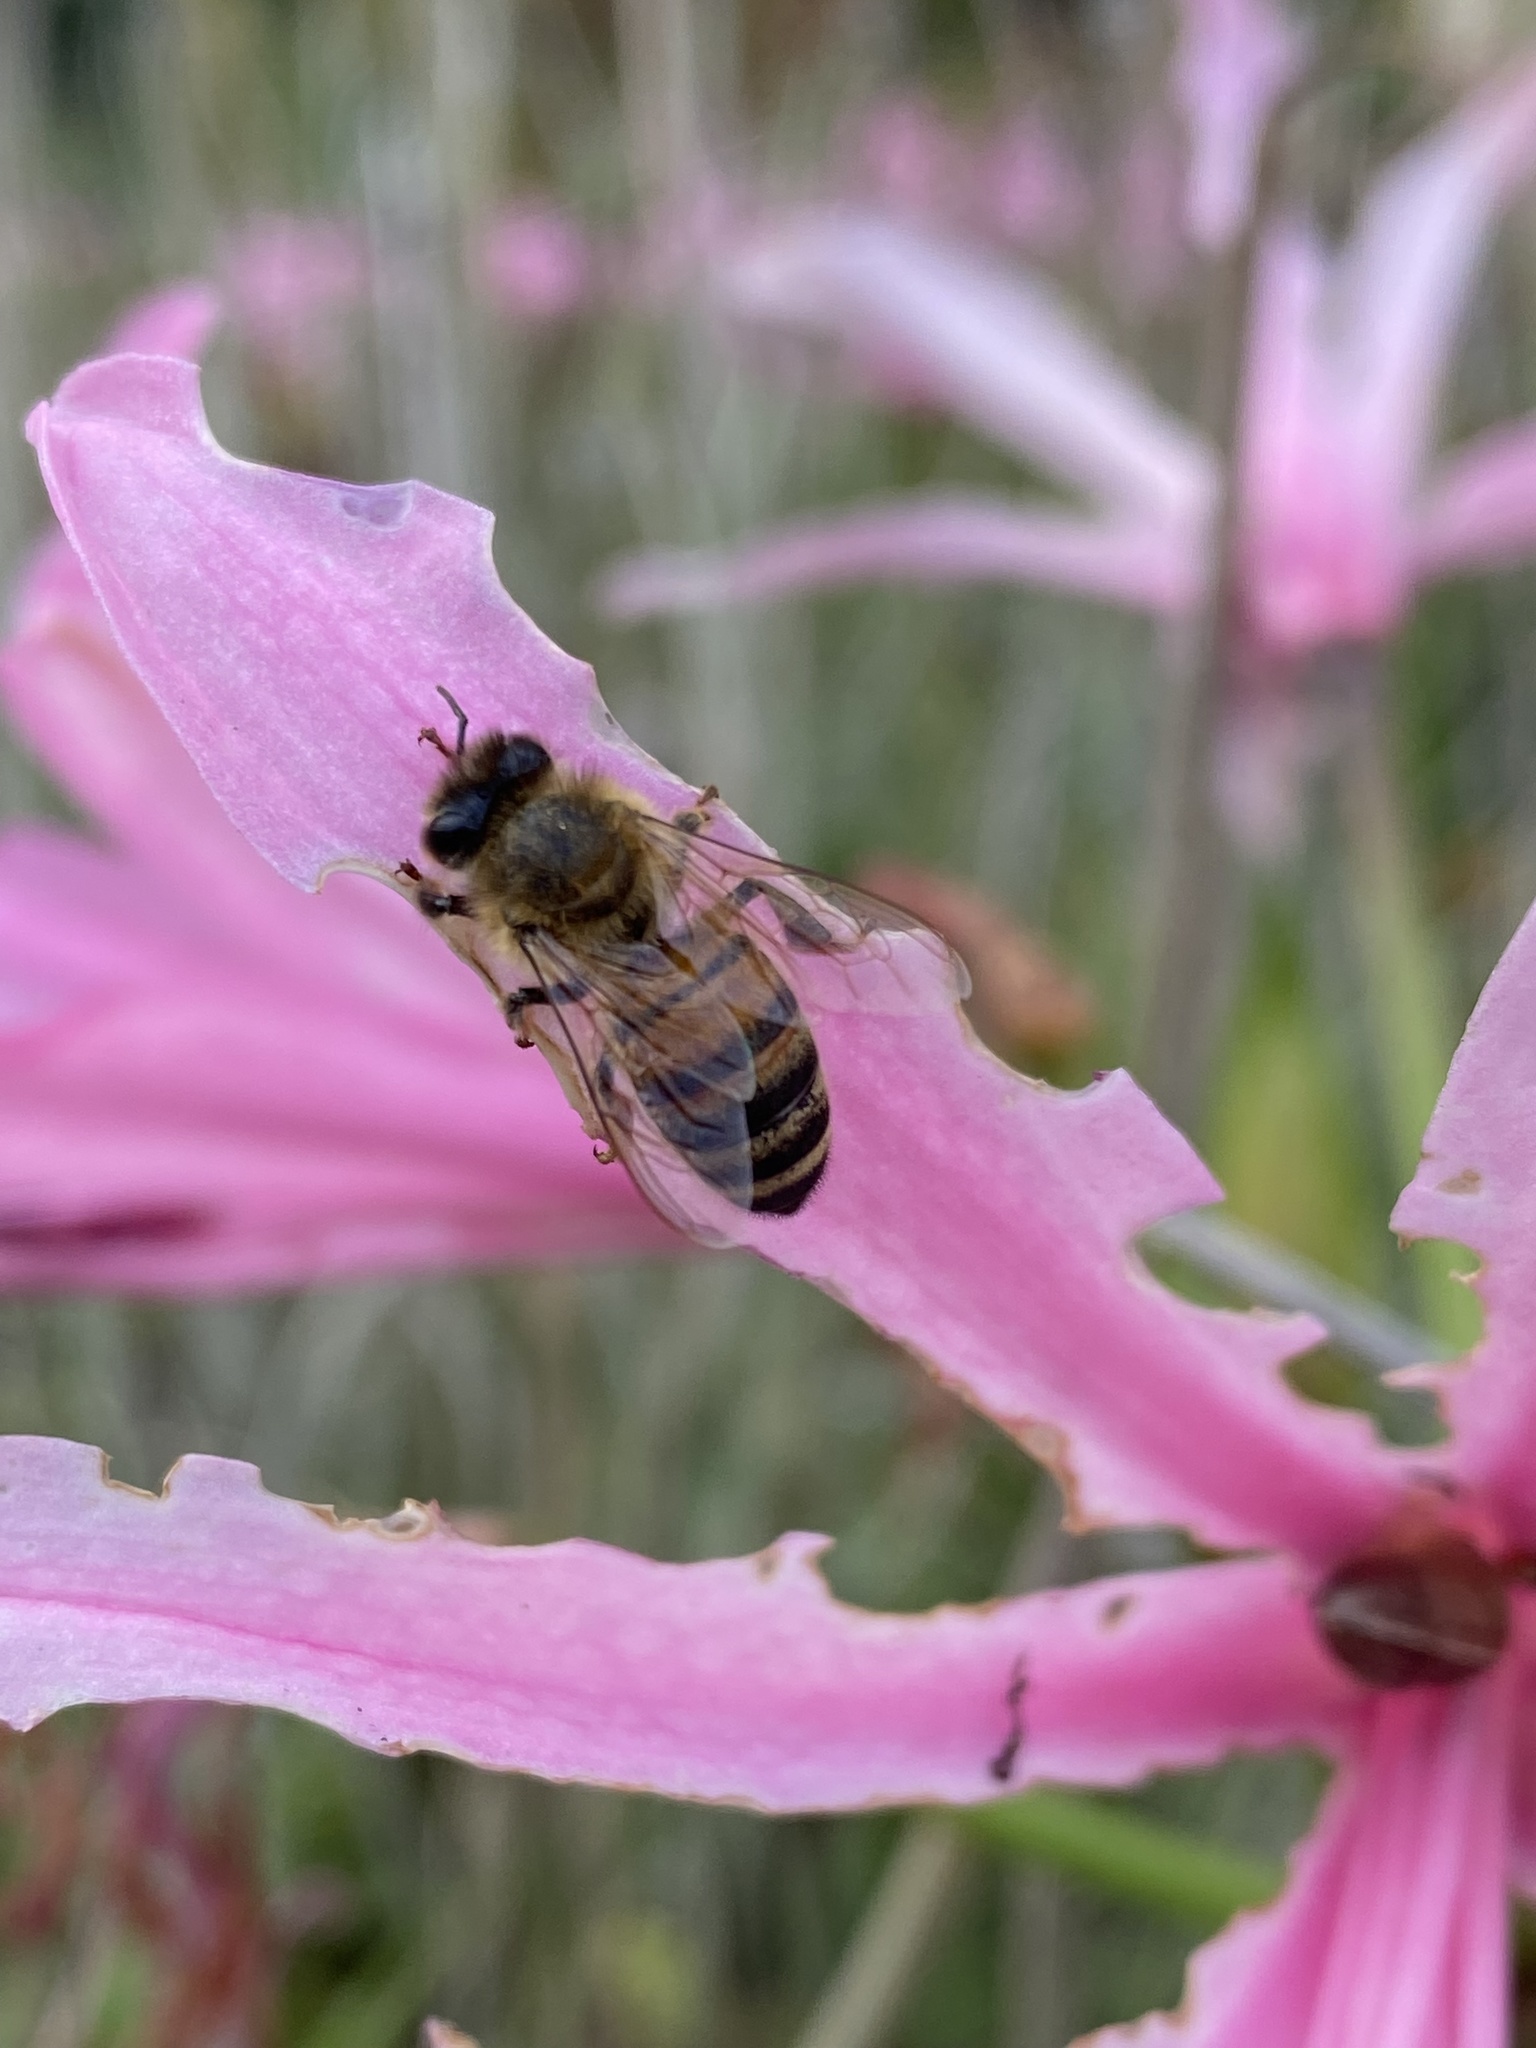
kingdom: Animalia
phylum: Arthropoda
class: Insecta
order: Hymenoptera
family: Apidae
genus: Apis
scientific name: Apis mellifera
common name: Honey bee
